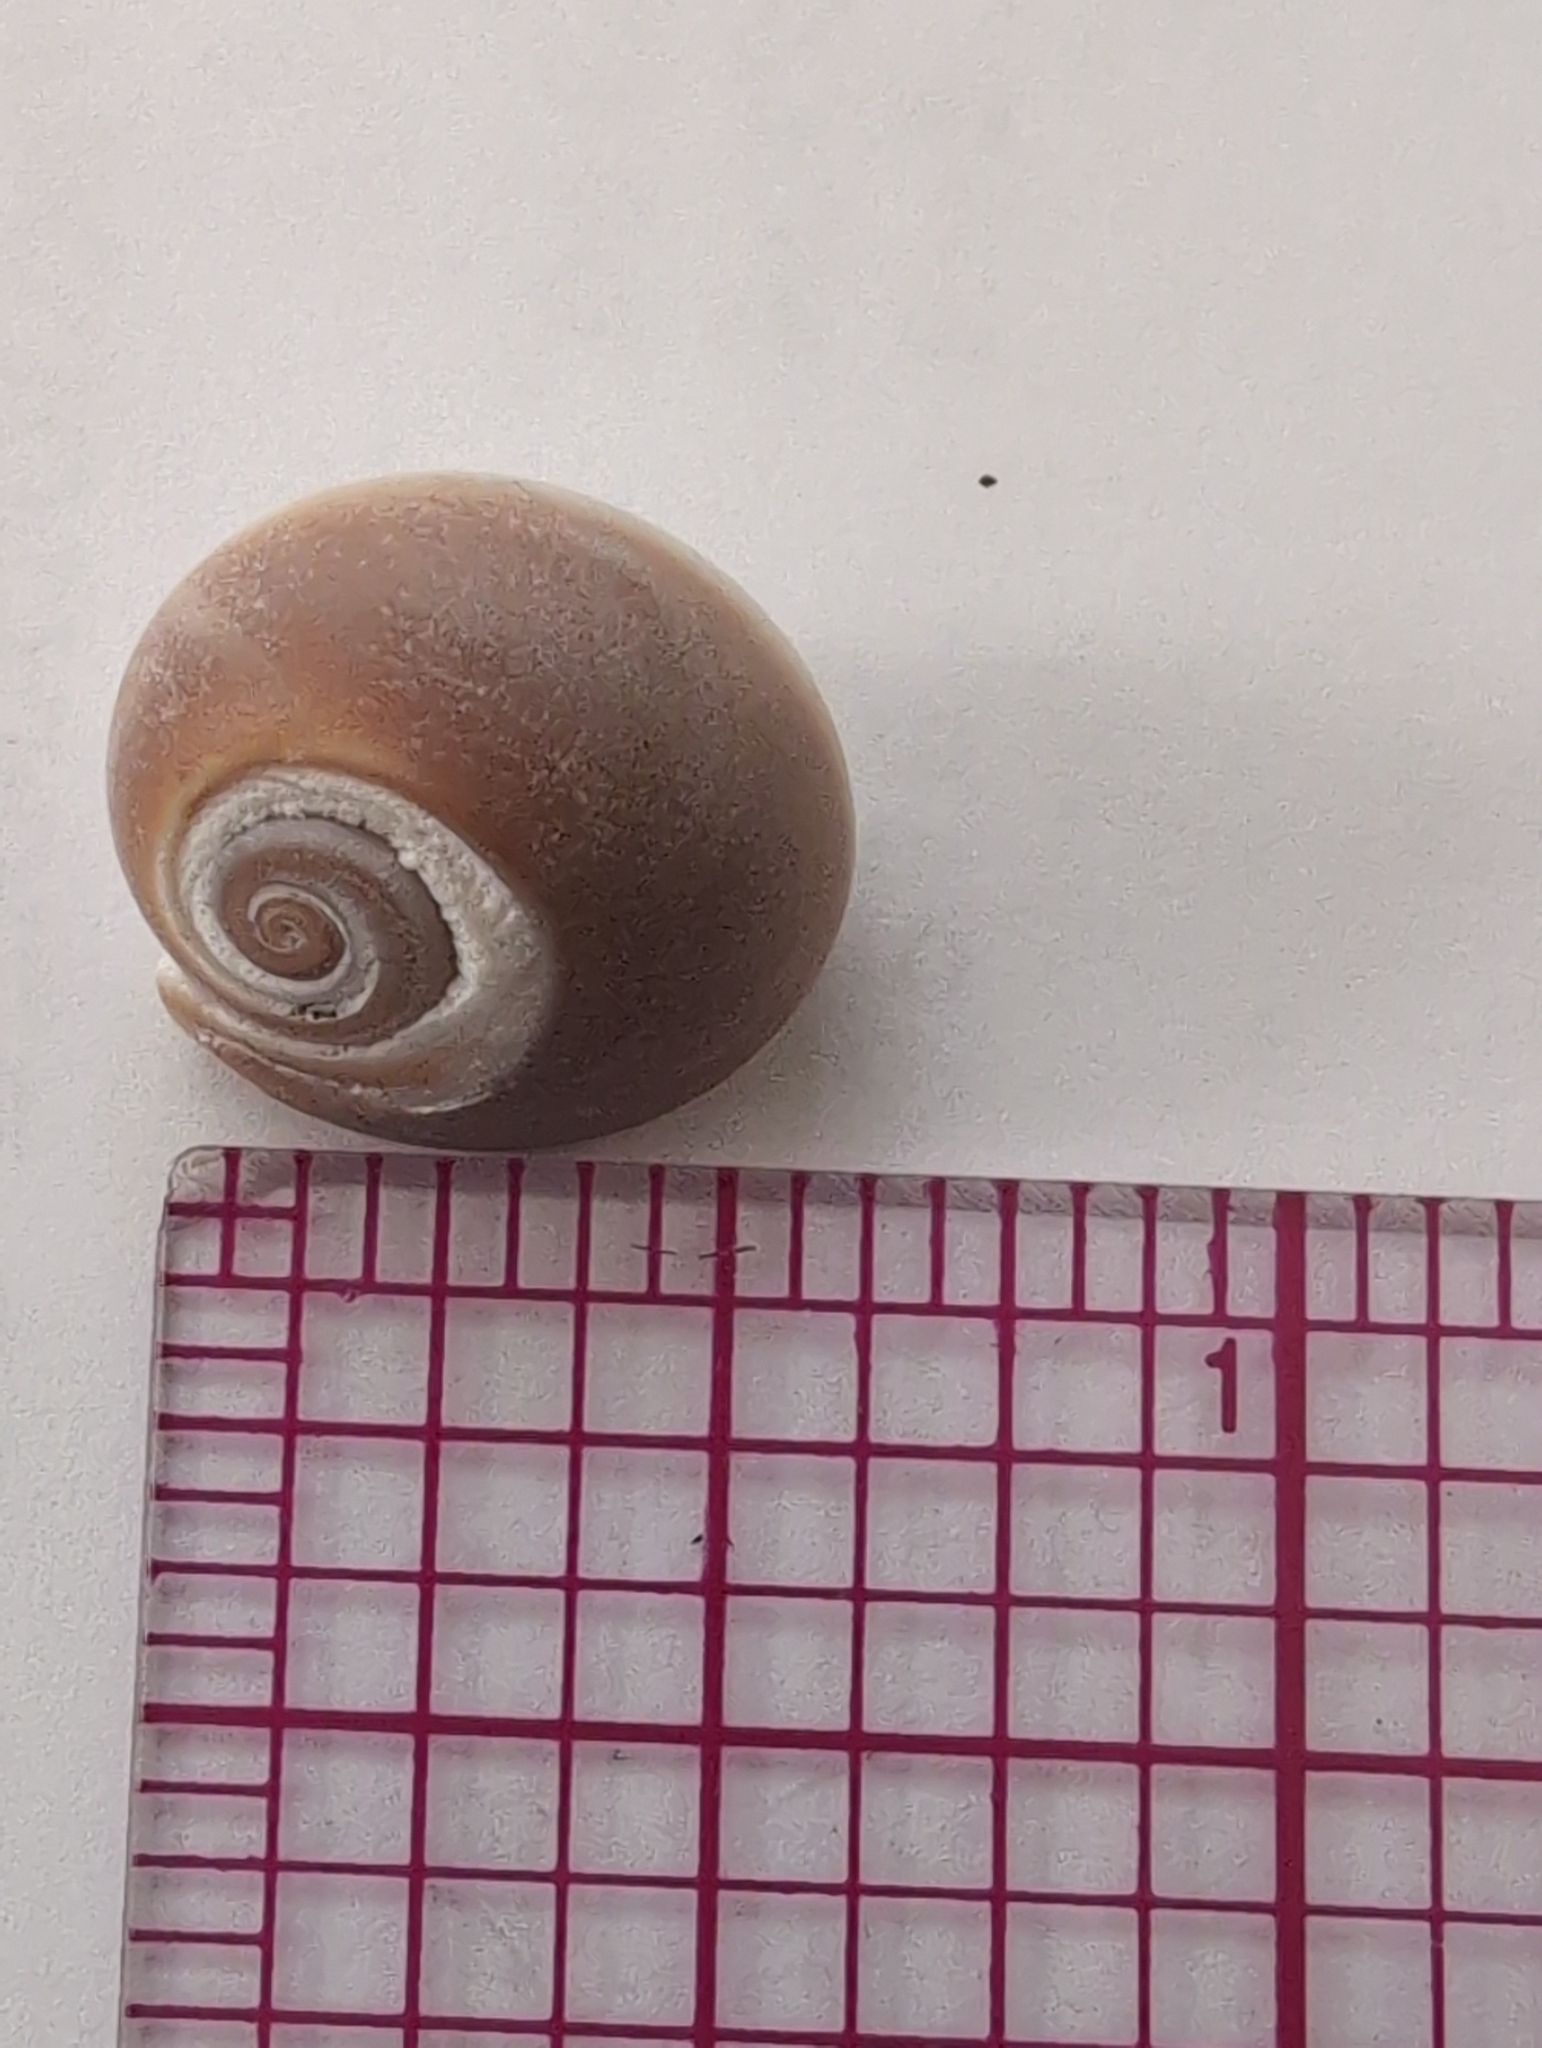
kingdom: Animalia
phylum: Mollusca
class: Gastropoda
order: Littorinimorpha
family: Naticidae
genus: Glossaulax
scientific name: Glossaulax reclusiana
